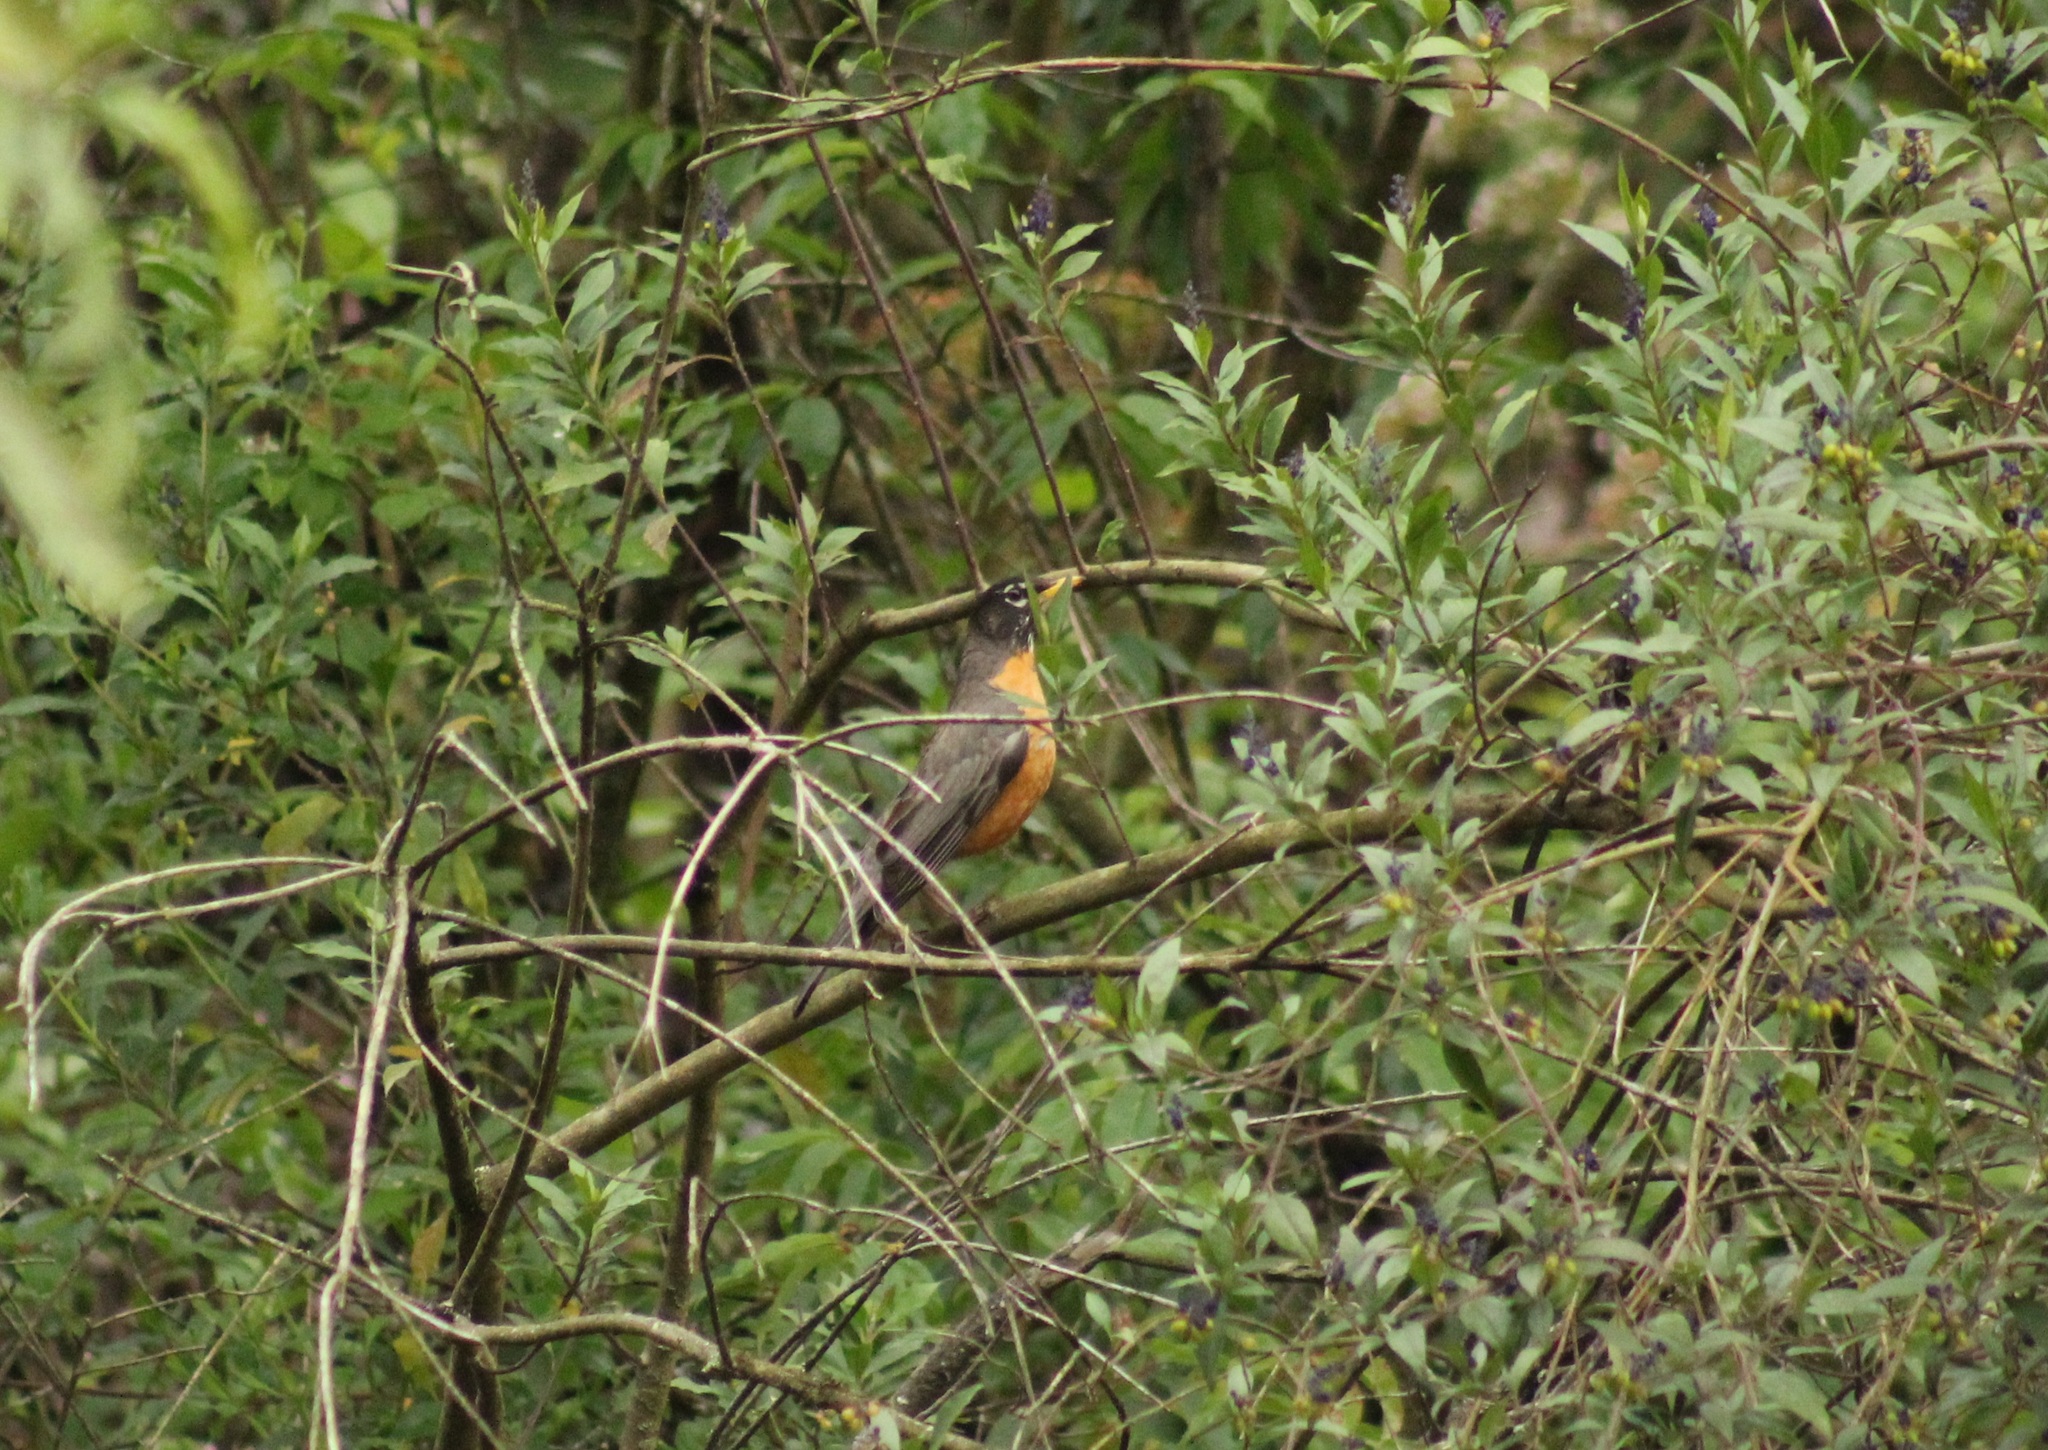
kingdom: Animalia
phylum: Chordata
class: Aves
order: Passeriformes
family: Turdidae
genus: Turdus
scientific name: Turdus migratorius
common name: American robin
